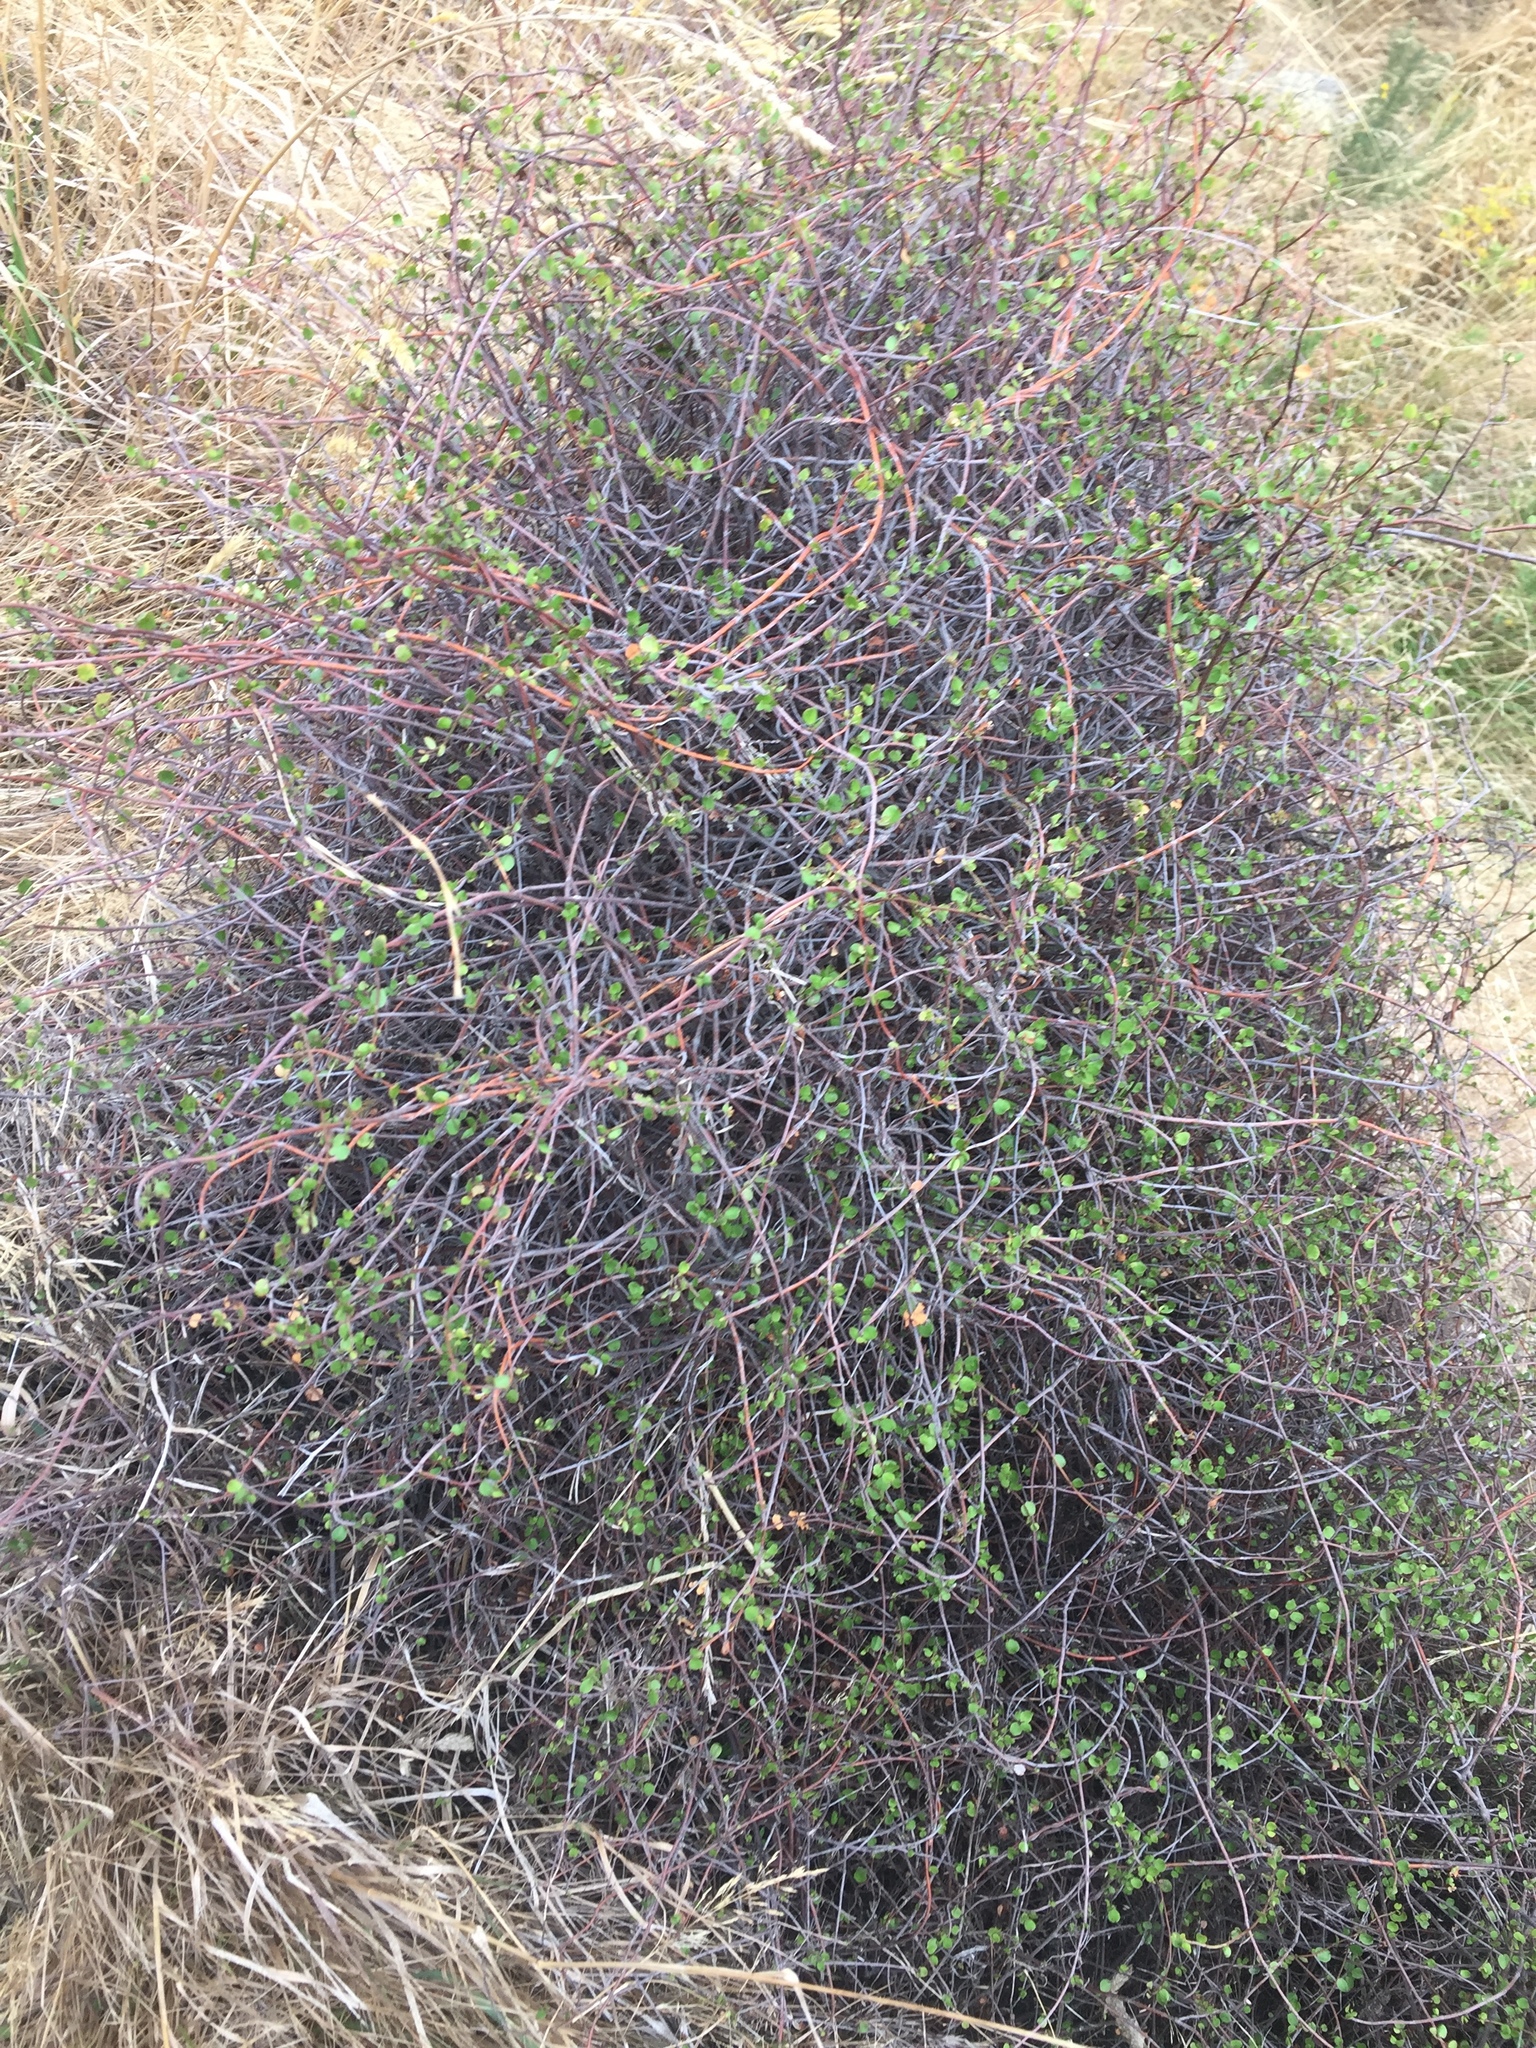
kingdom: Plantae
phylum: Tracheophyta
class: Magnoliopsida
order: Caryophyllales
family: Polygonaceae
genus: Muehlenbeckia
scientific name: Muehlenbeckia complexa
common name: Wireplant
